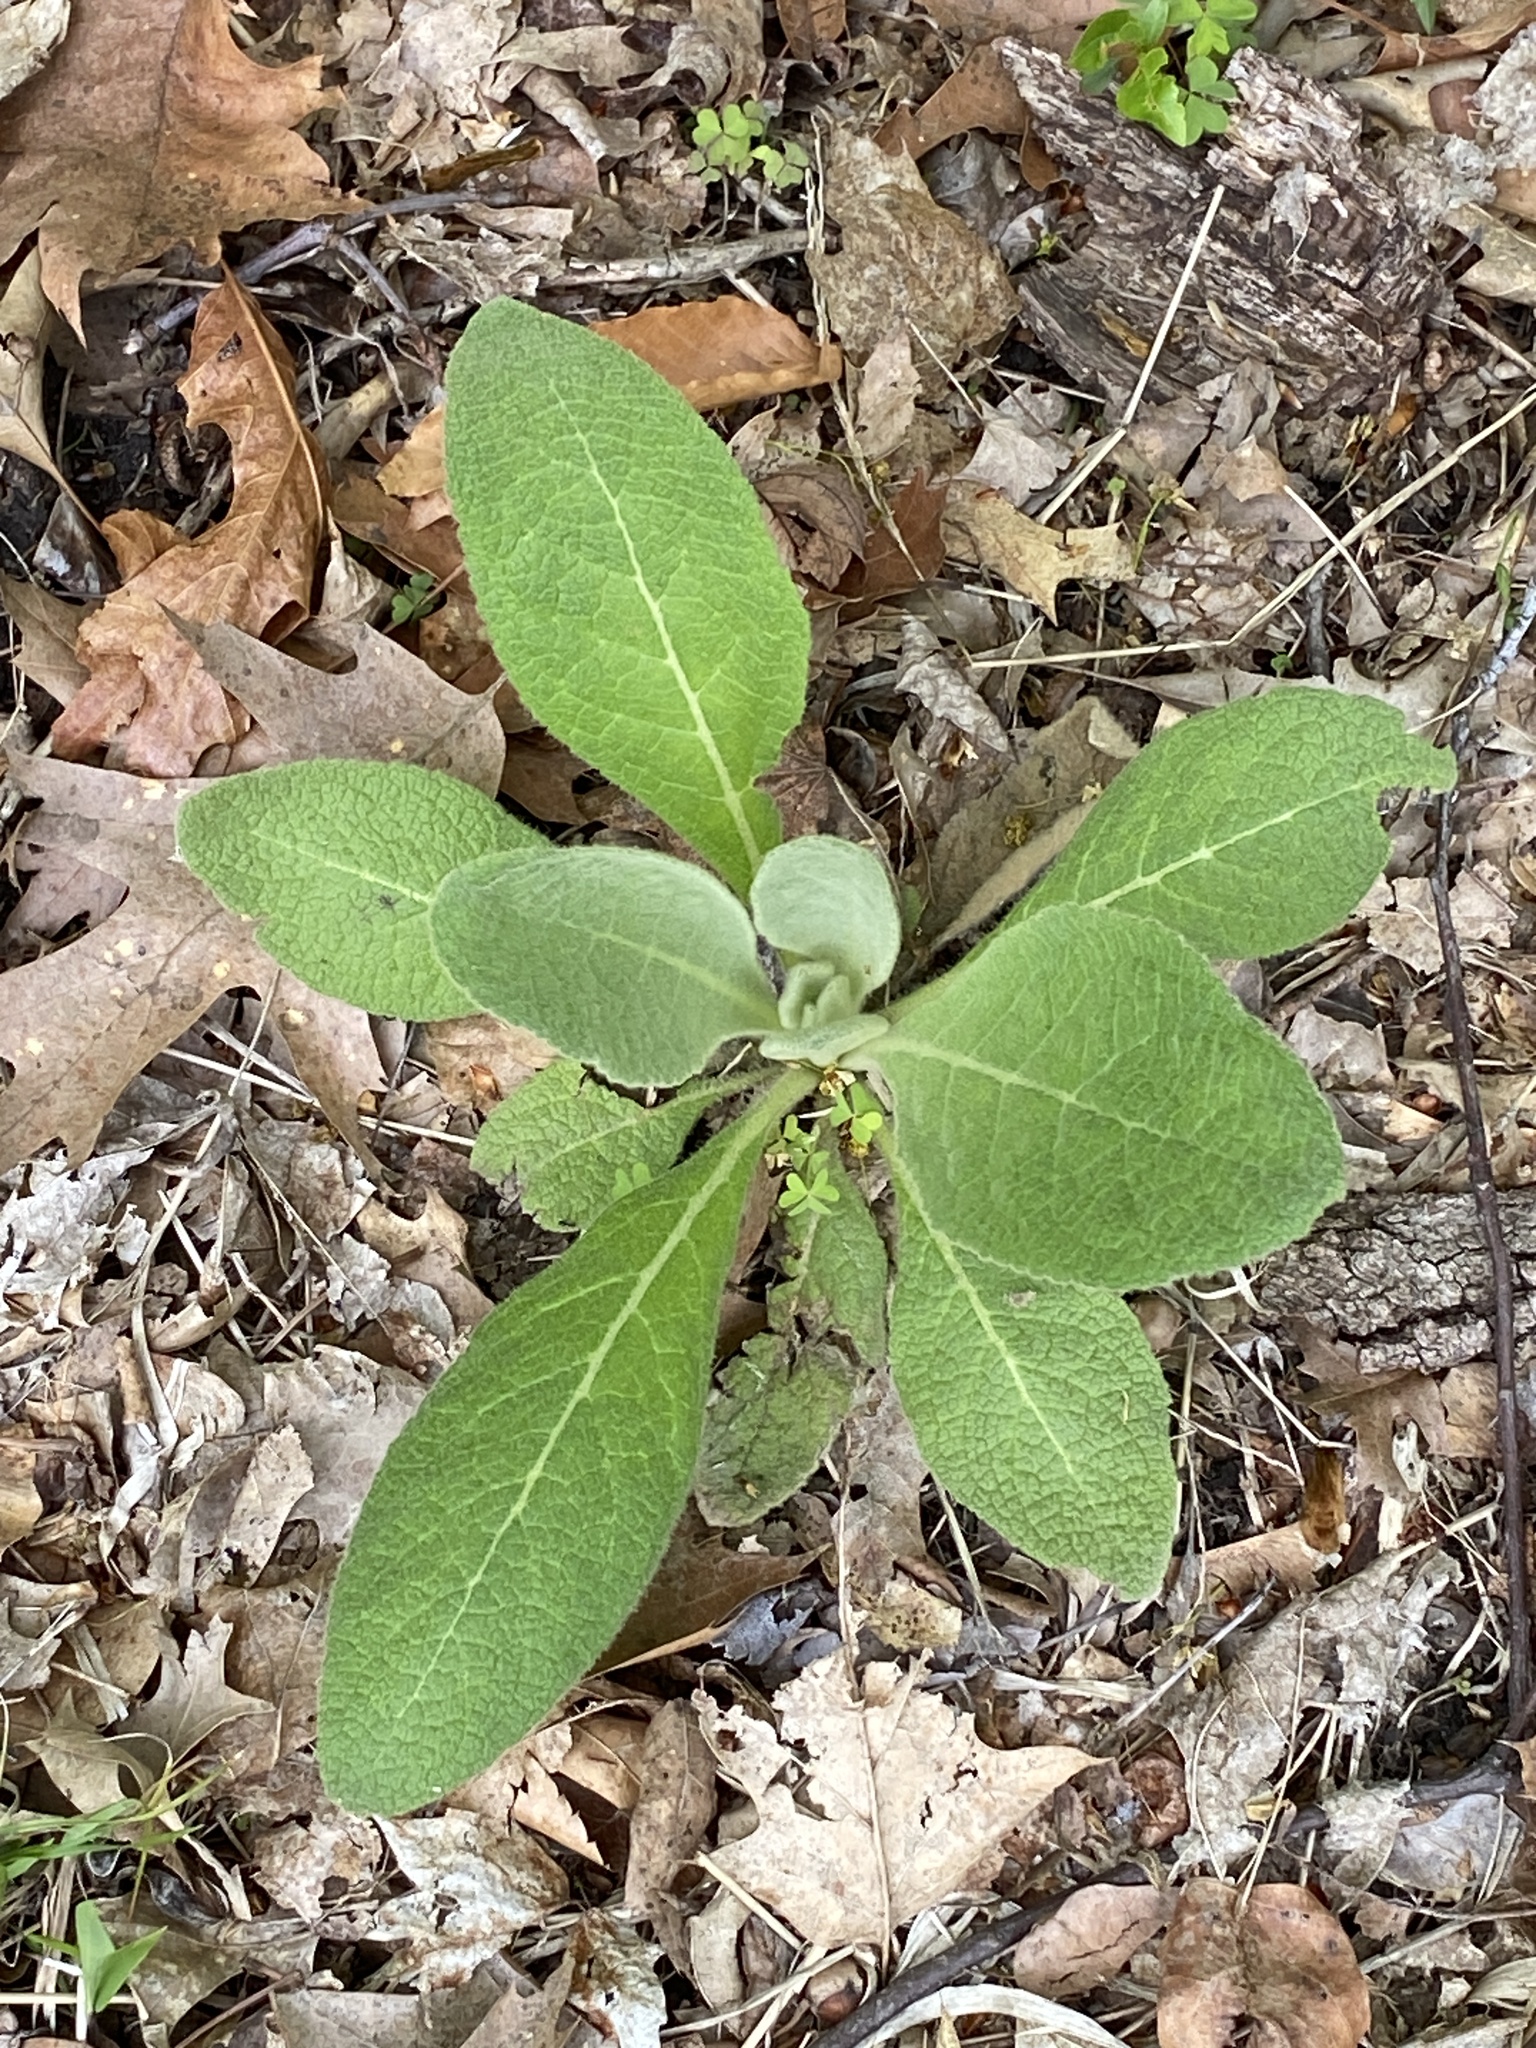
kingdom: Plantae
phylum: Tracheophyta
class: Magnoliopsida
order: Lamiales
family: Scrophulariaceae
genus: Verbascum
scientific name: Verbascum thapsus
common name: Common mullein
